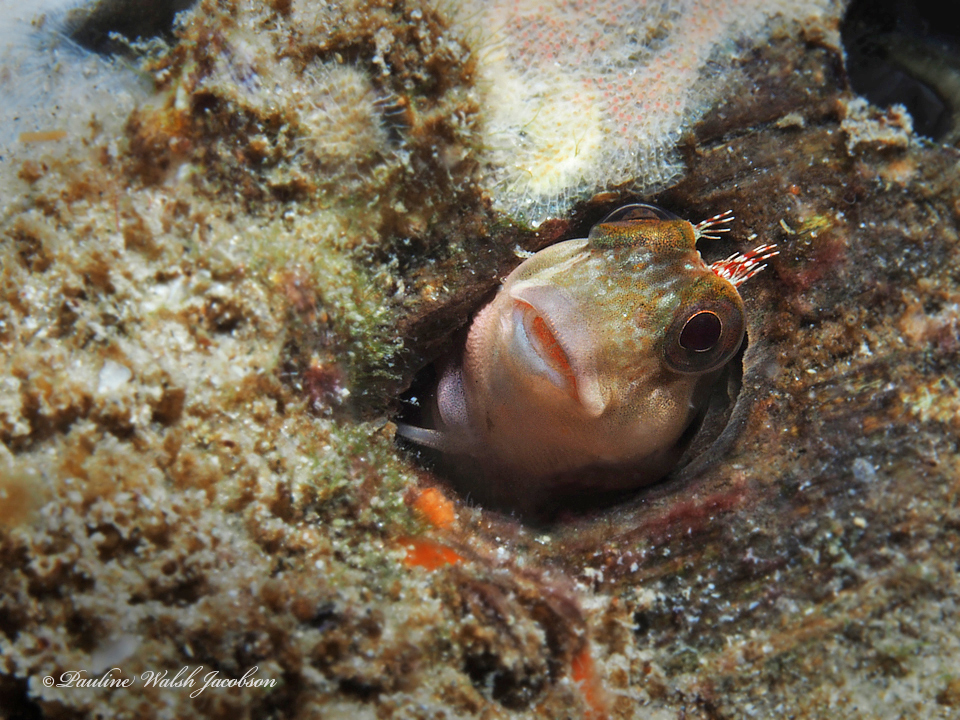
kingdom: Animalia
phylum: Chordata
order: Perciformes
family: Blenniidae
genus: Scartella
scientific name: Scartella cristata
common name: Molly miller
